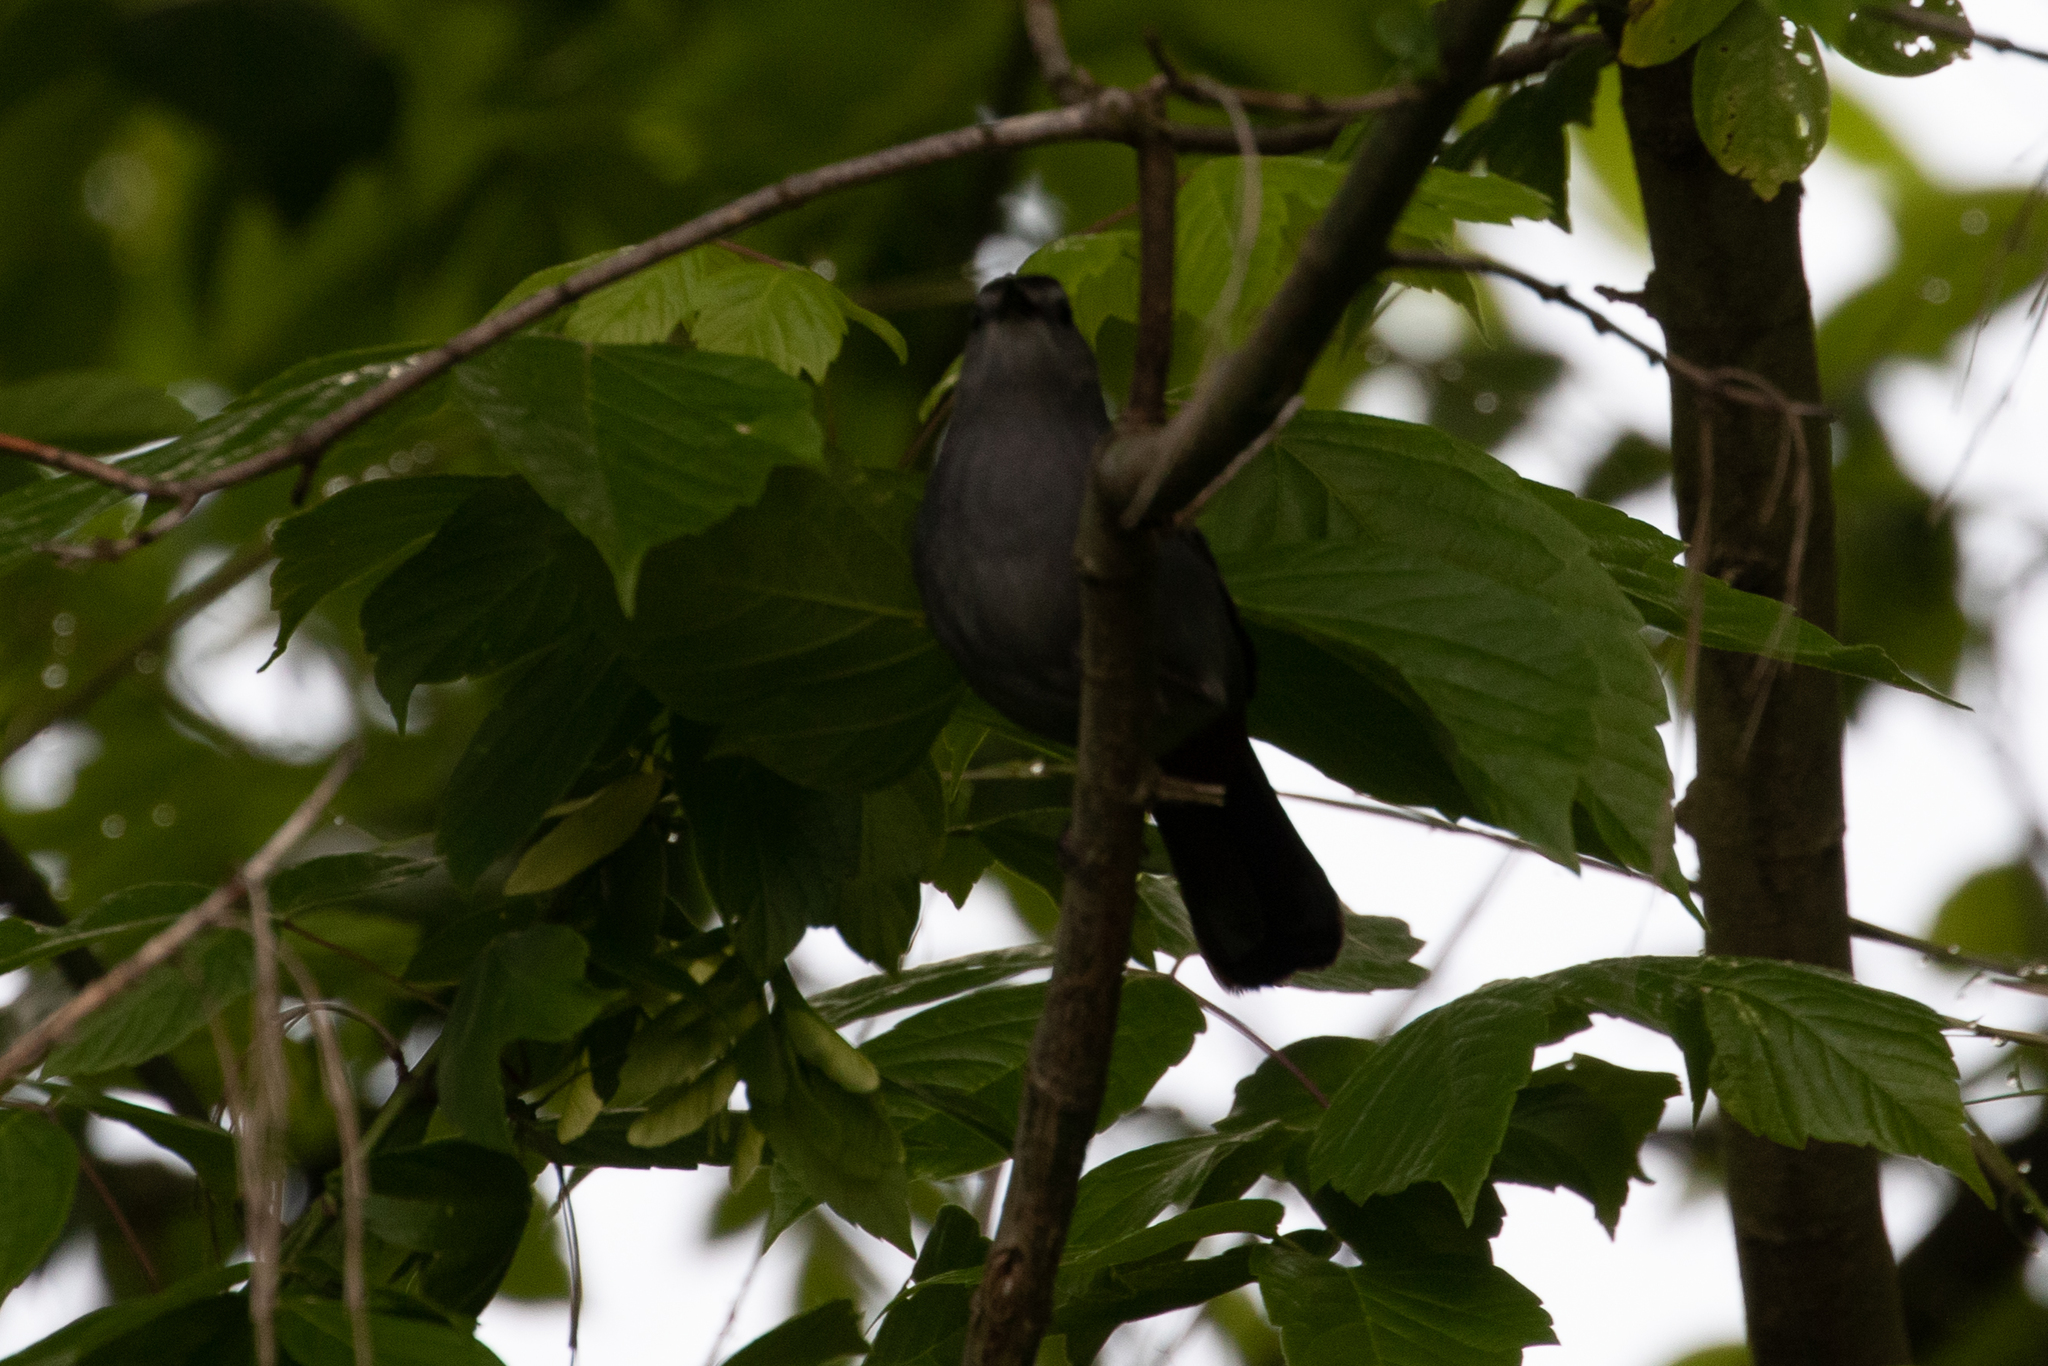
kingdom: Animalia
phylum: Chordata
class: Aves
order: Passeriformes
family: Mimidae
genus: Dumetella
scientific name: Dumetella carolinensis
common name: Gray catbird
